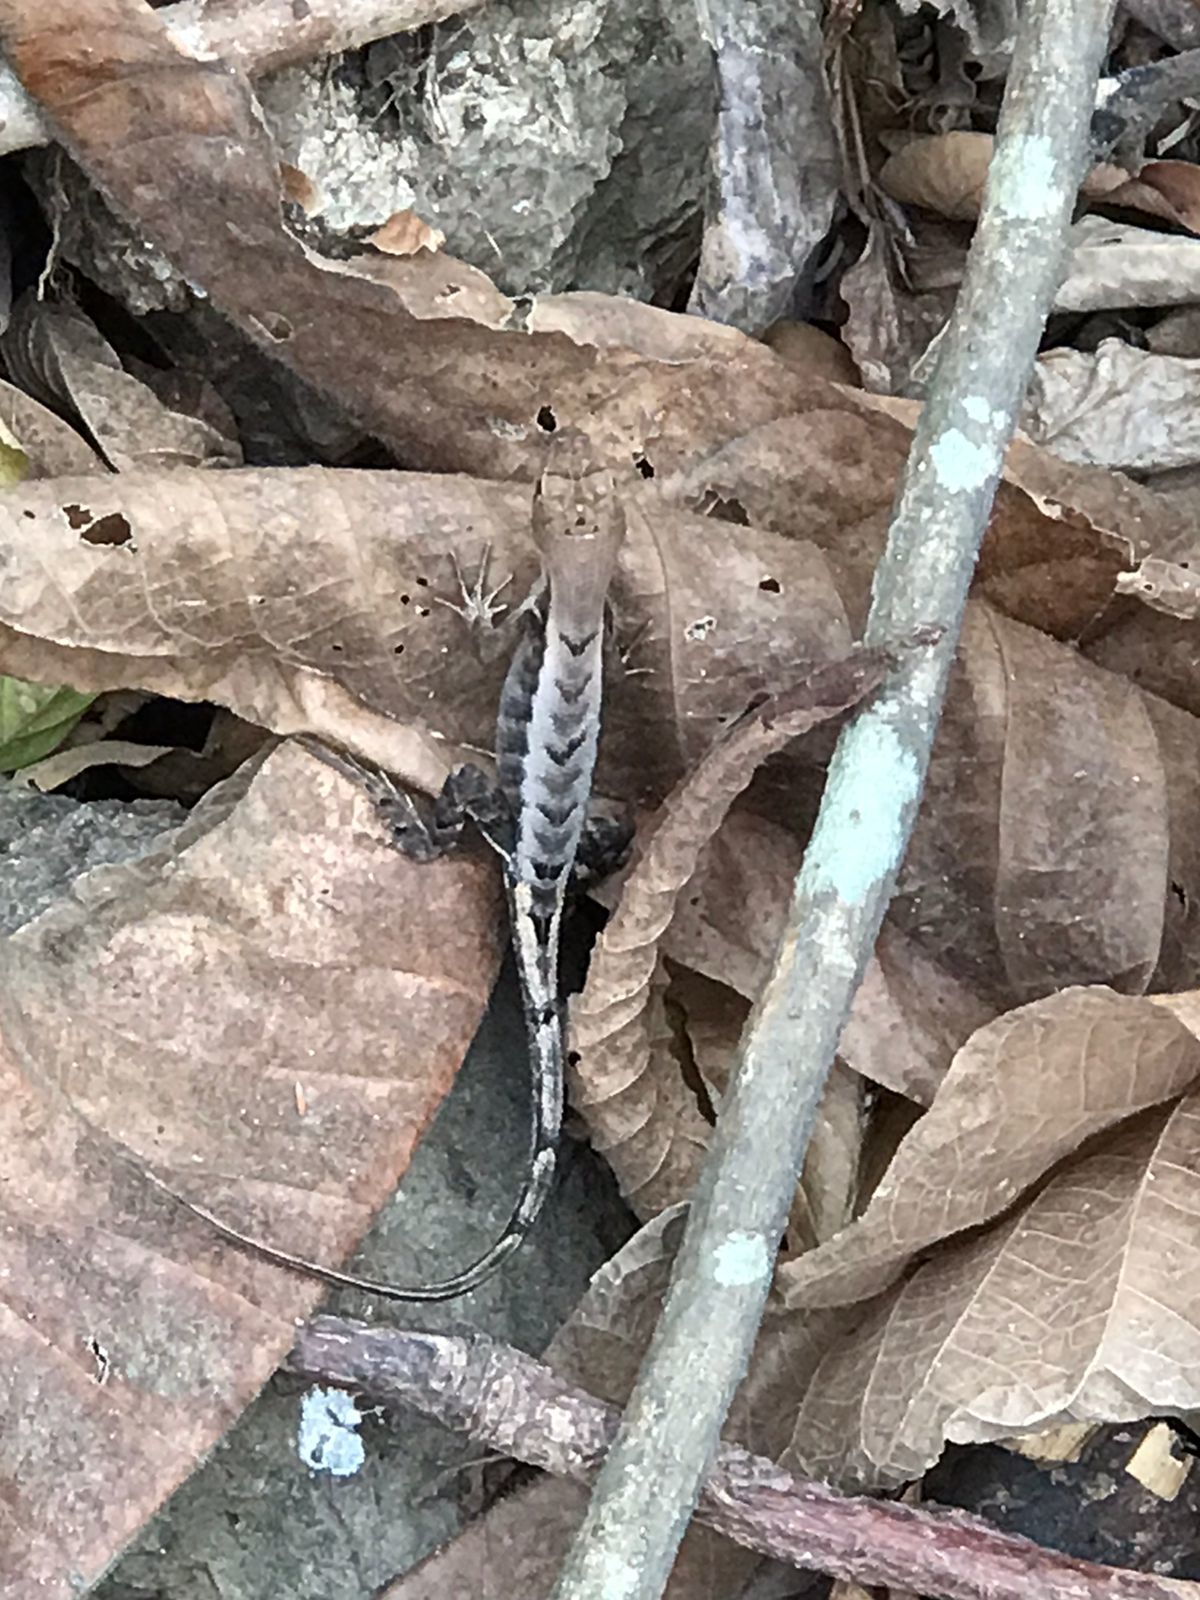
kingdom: Animalia
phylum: Chordata
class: Squamata
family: Tropiduridae
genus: Stenocercus
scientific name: Stenocercus iridescens
